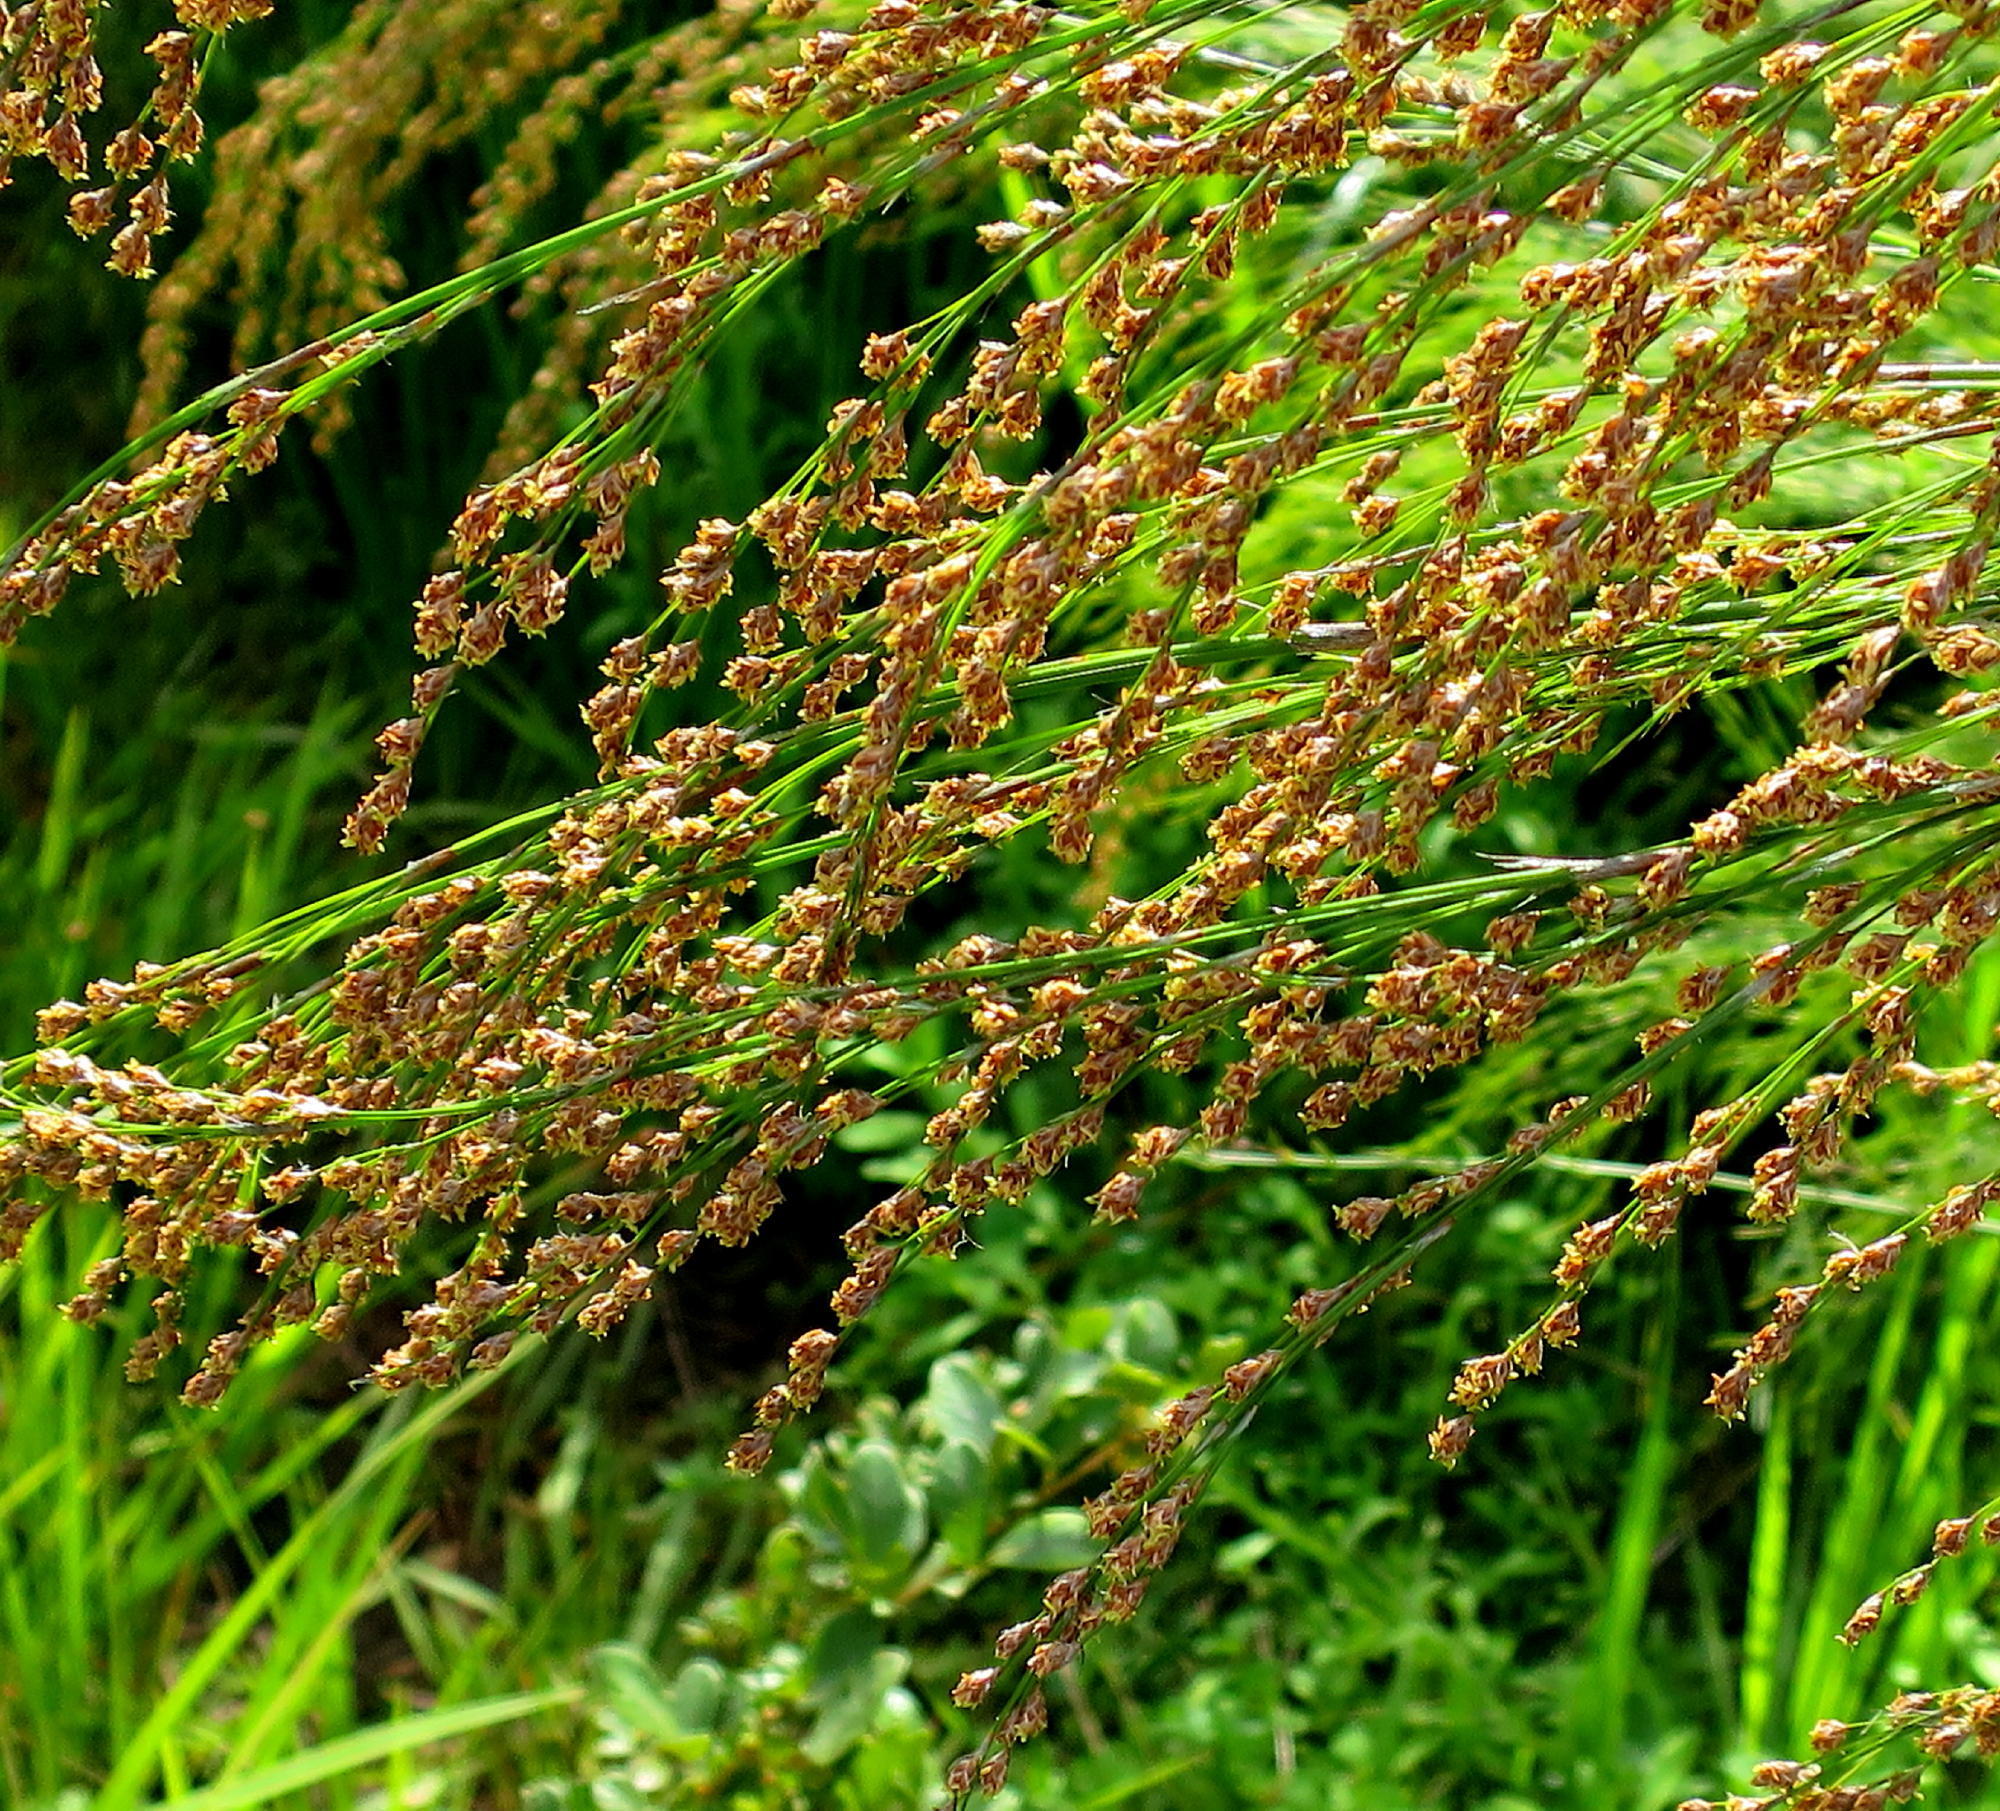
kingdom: Plantae
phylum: Tracheophyta
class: Liliopsida
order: Poales
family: Restionaceae
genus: Restio
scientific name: Restio paniculatus
